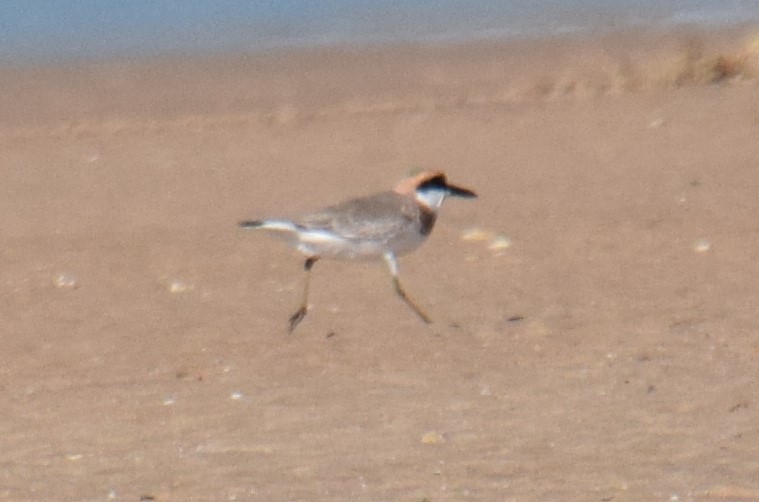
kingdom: Animalia
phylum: Chordata
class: Aves
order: Charadriiformes
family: Charadriidae
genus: Charadrius
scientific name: Charadrius leschenaultii
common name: Greater sand plover
